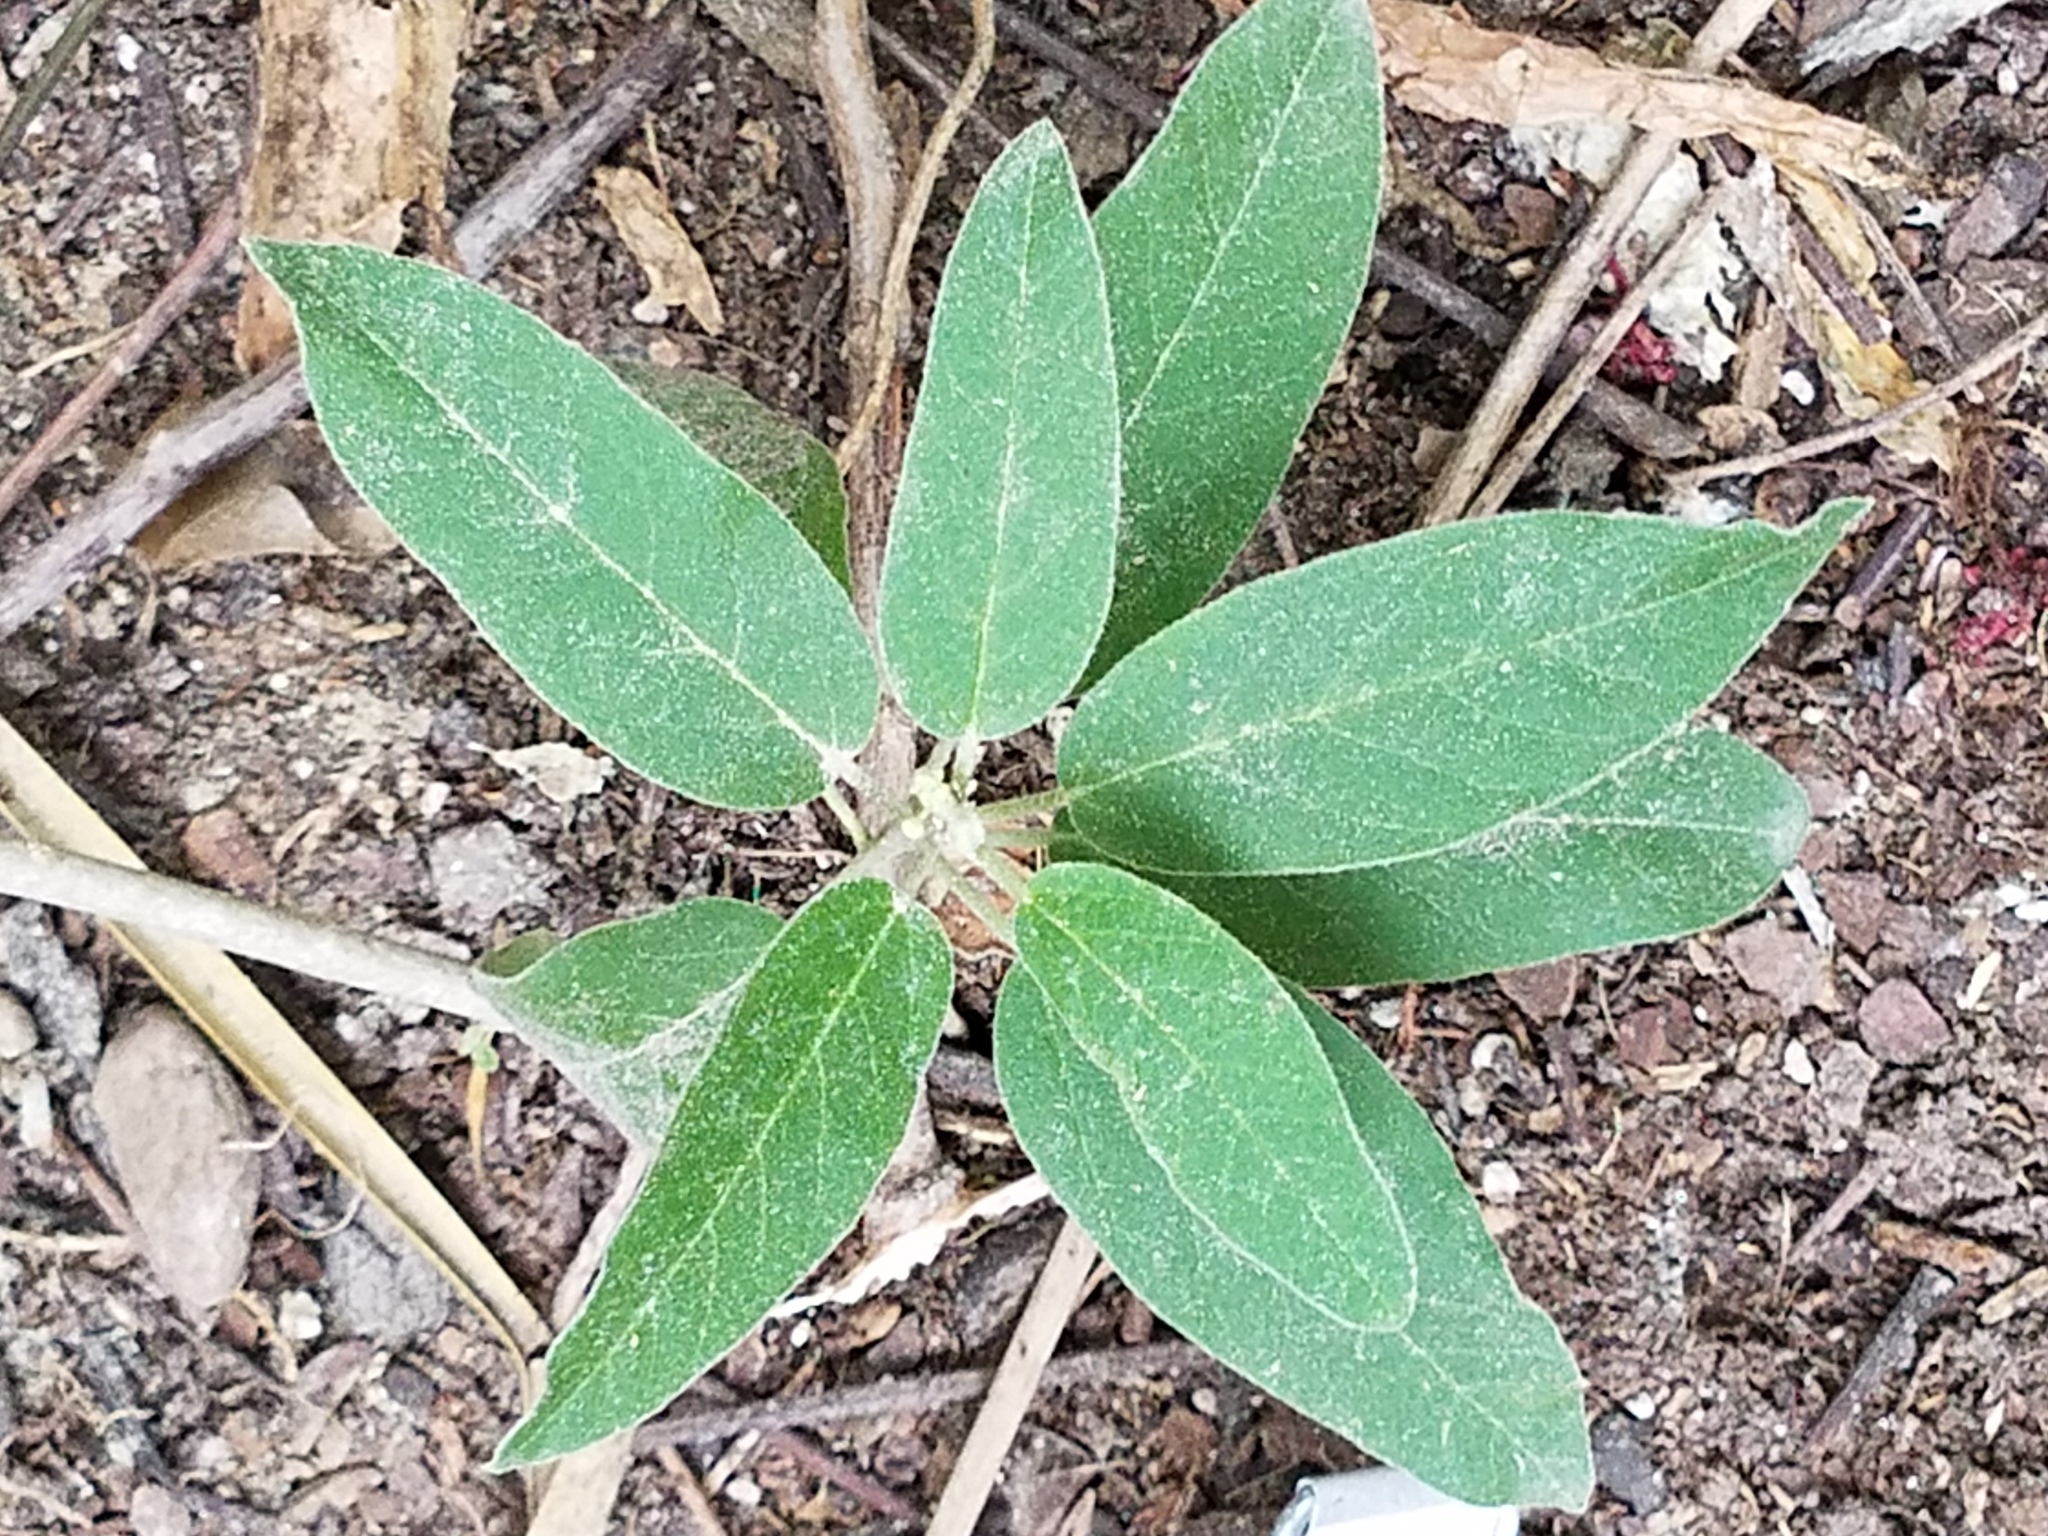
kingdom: Plantae
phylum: Tracheophyta
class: Magnoliopsida
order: Malpighiales
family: Euphorbiaceae
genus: Croton
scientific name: Croton incanus
